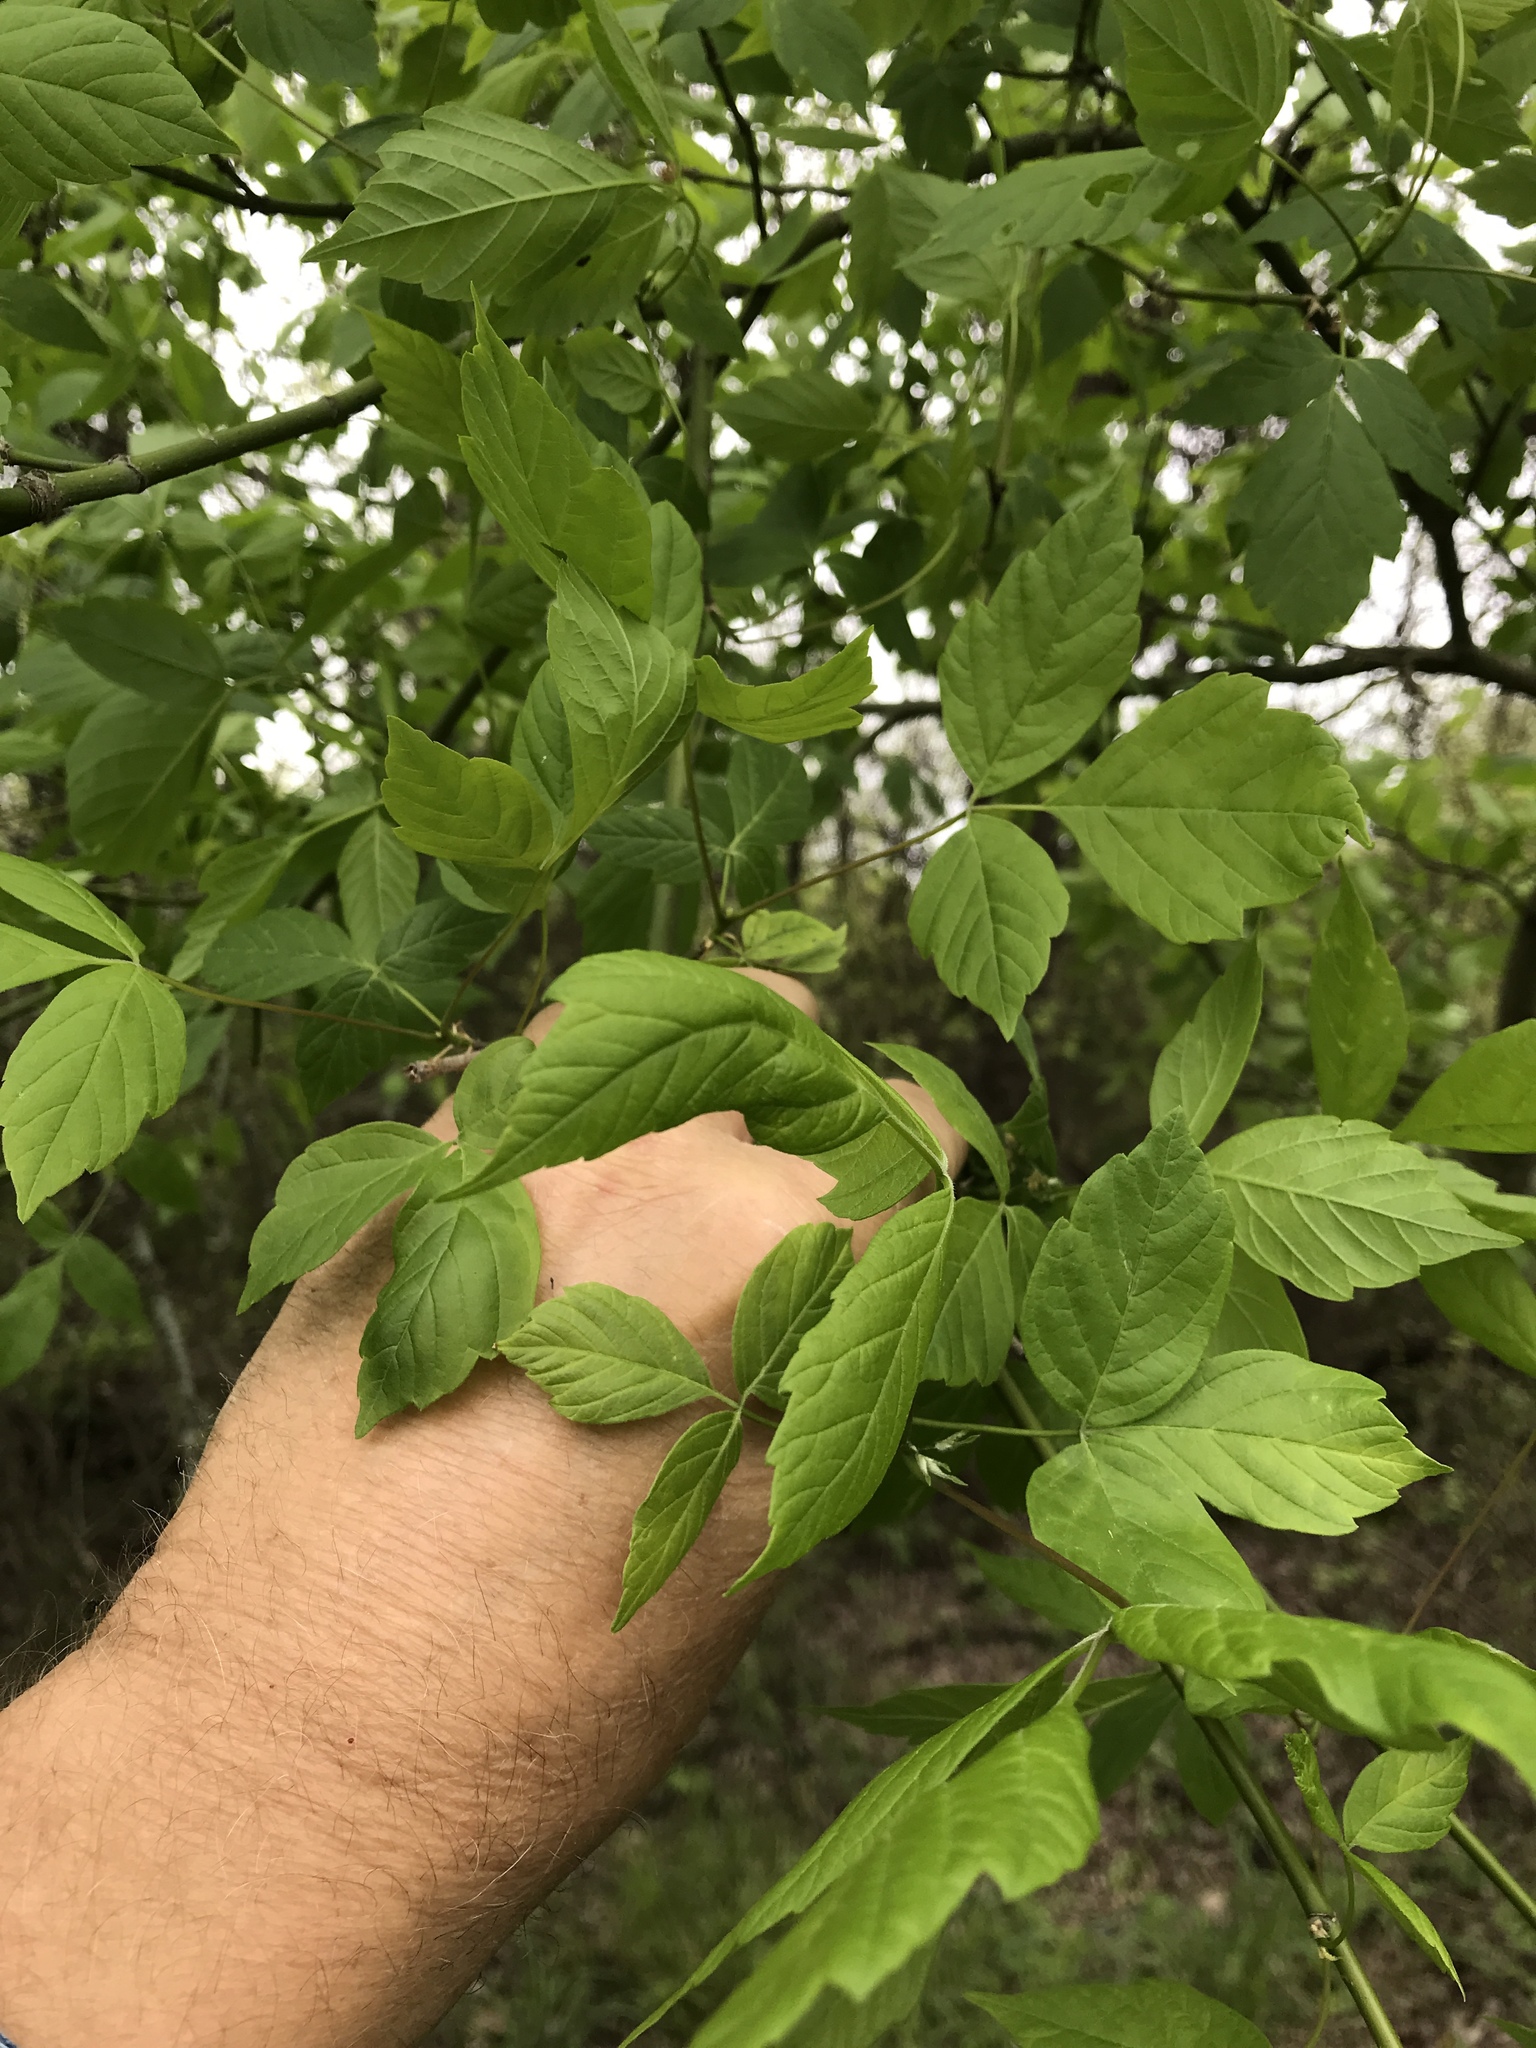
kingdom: Plantae
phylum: Tracheophyta
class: Magnoliopsida
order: Sapindales
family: Sapindaceae
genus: Acer
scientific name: Acer negundo
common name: Ashleaf maple
